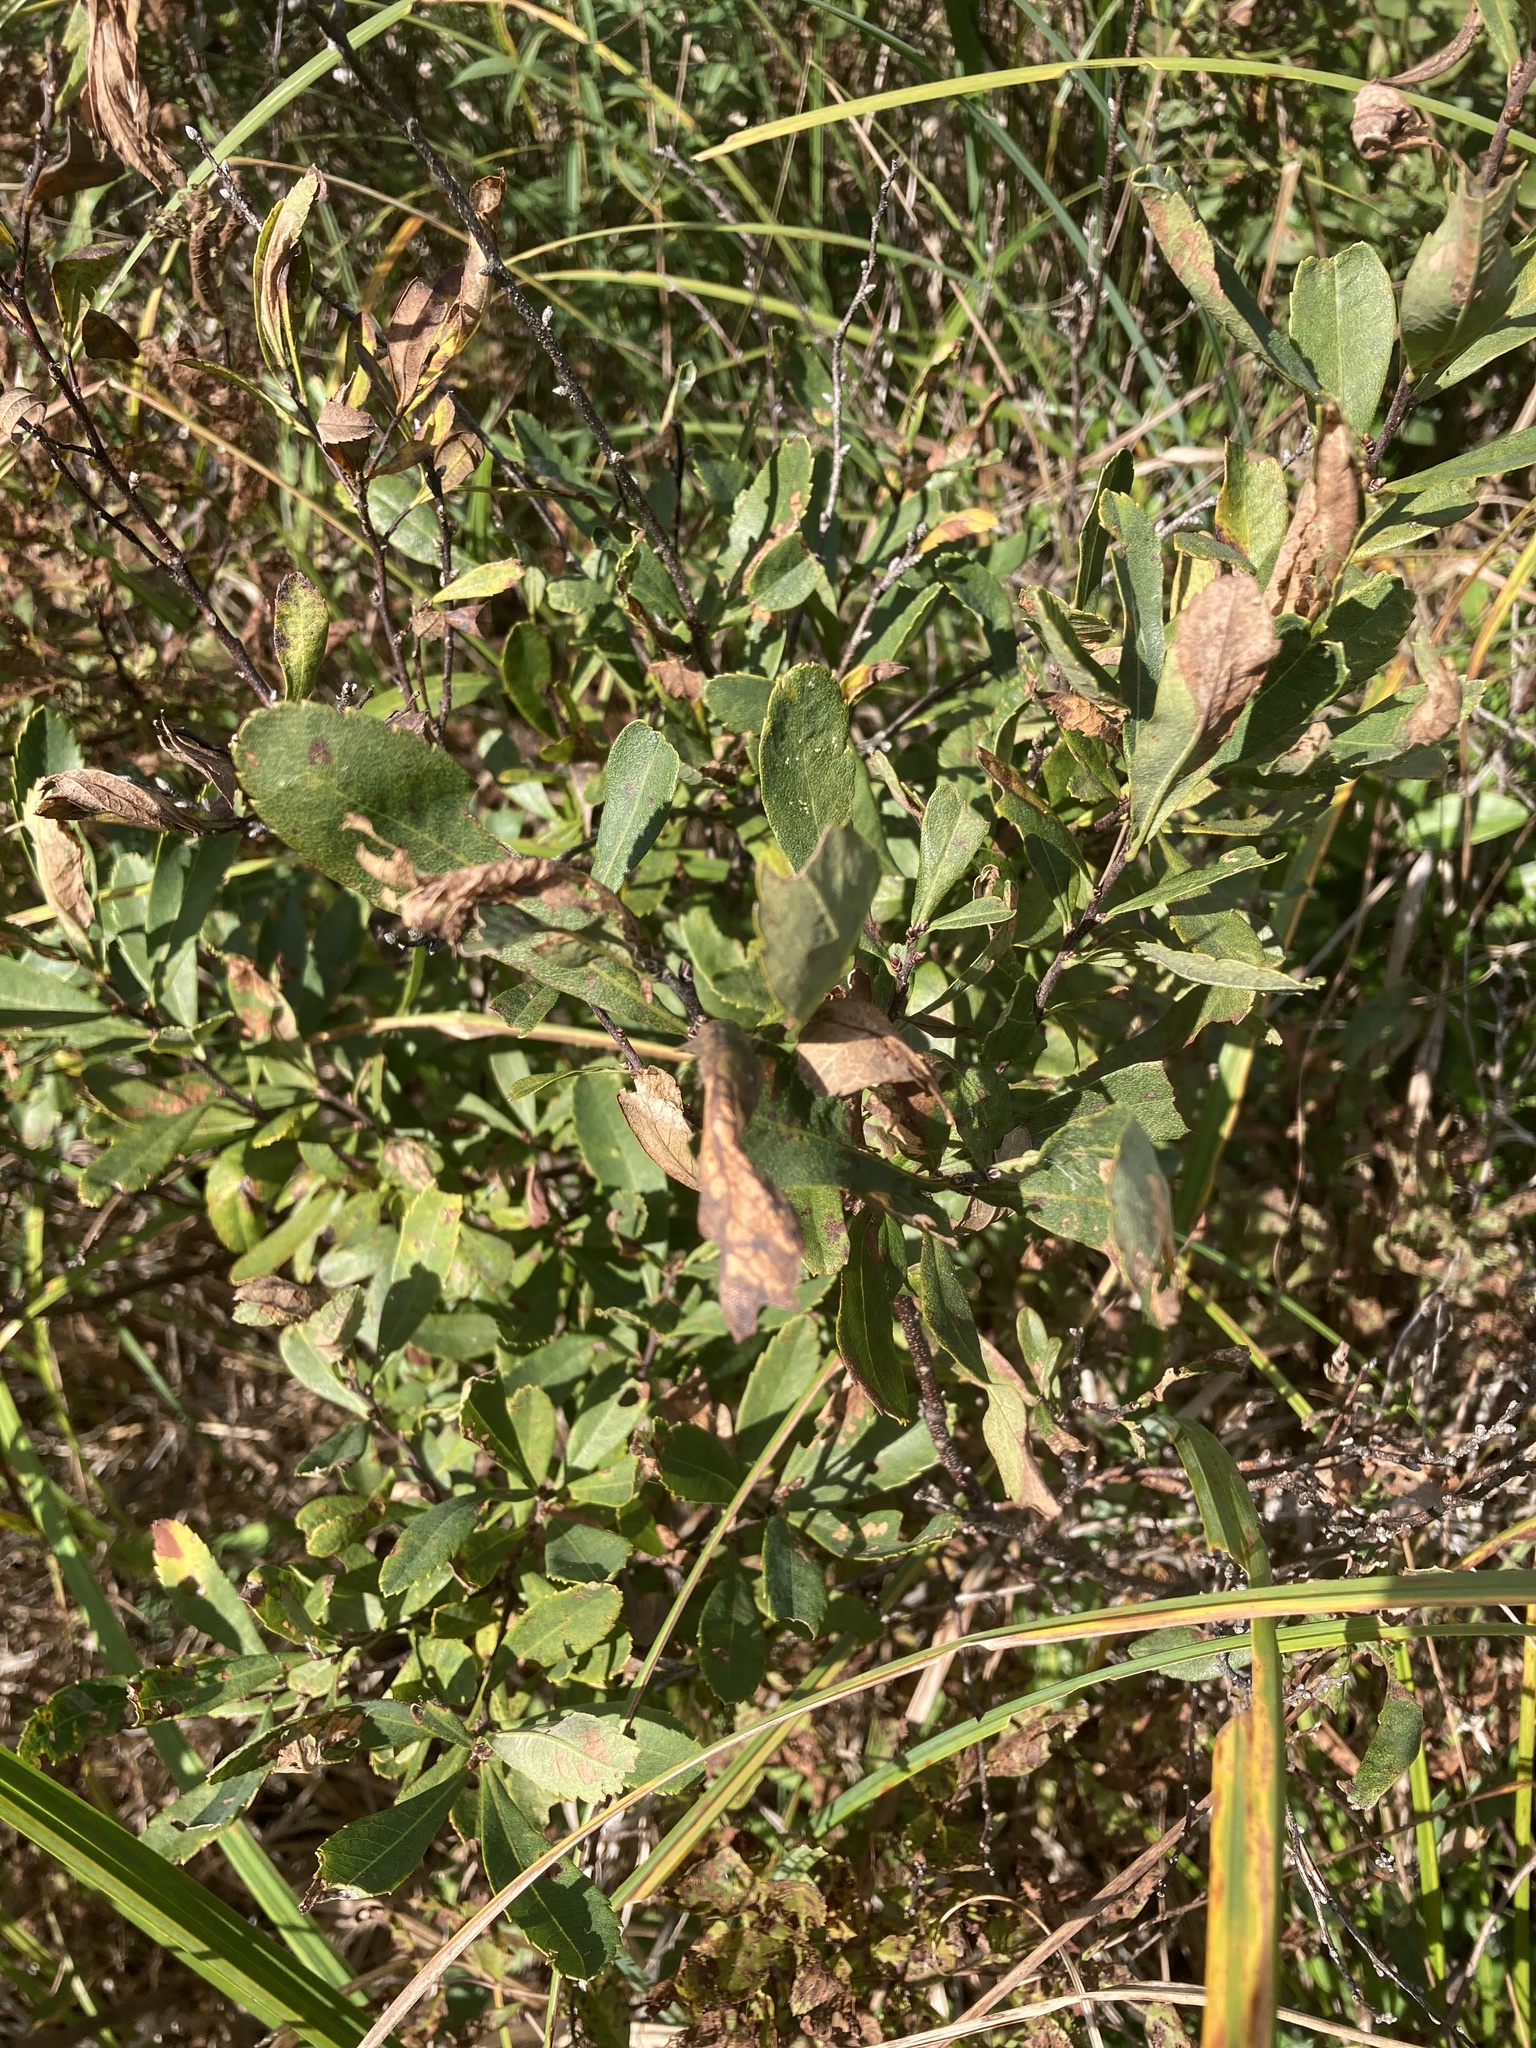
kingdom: Plantae
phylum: Tracheophyta
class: Magnoliopsida
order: Fagales
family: Myricaceae
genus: Myrica
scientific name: Myrica gale
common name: Sweet gale
